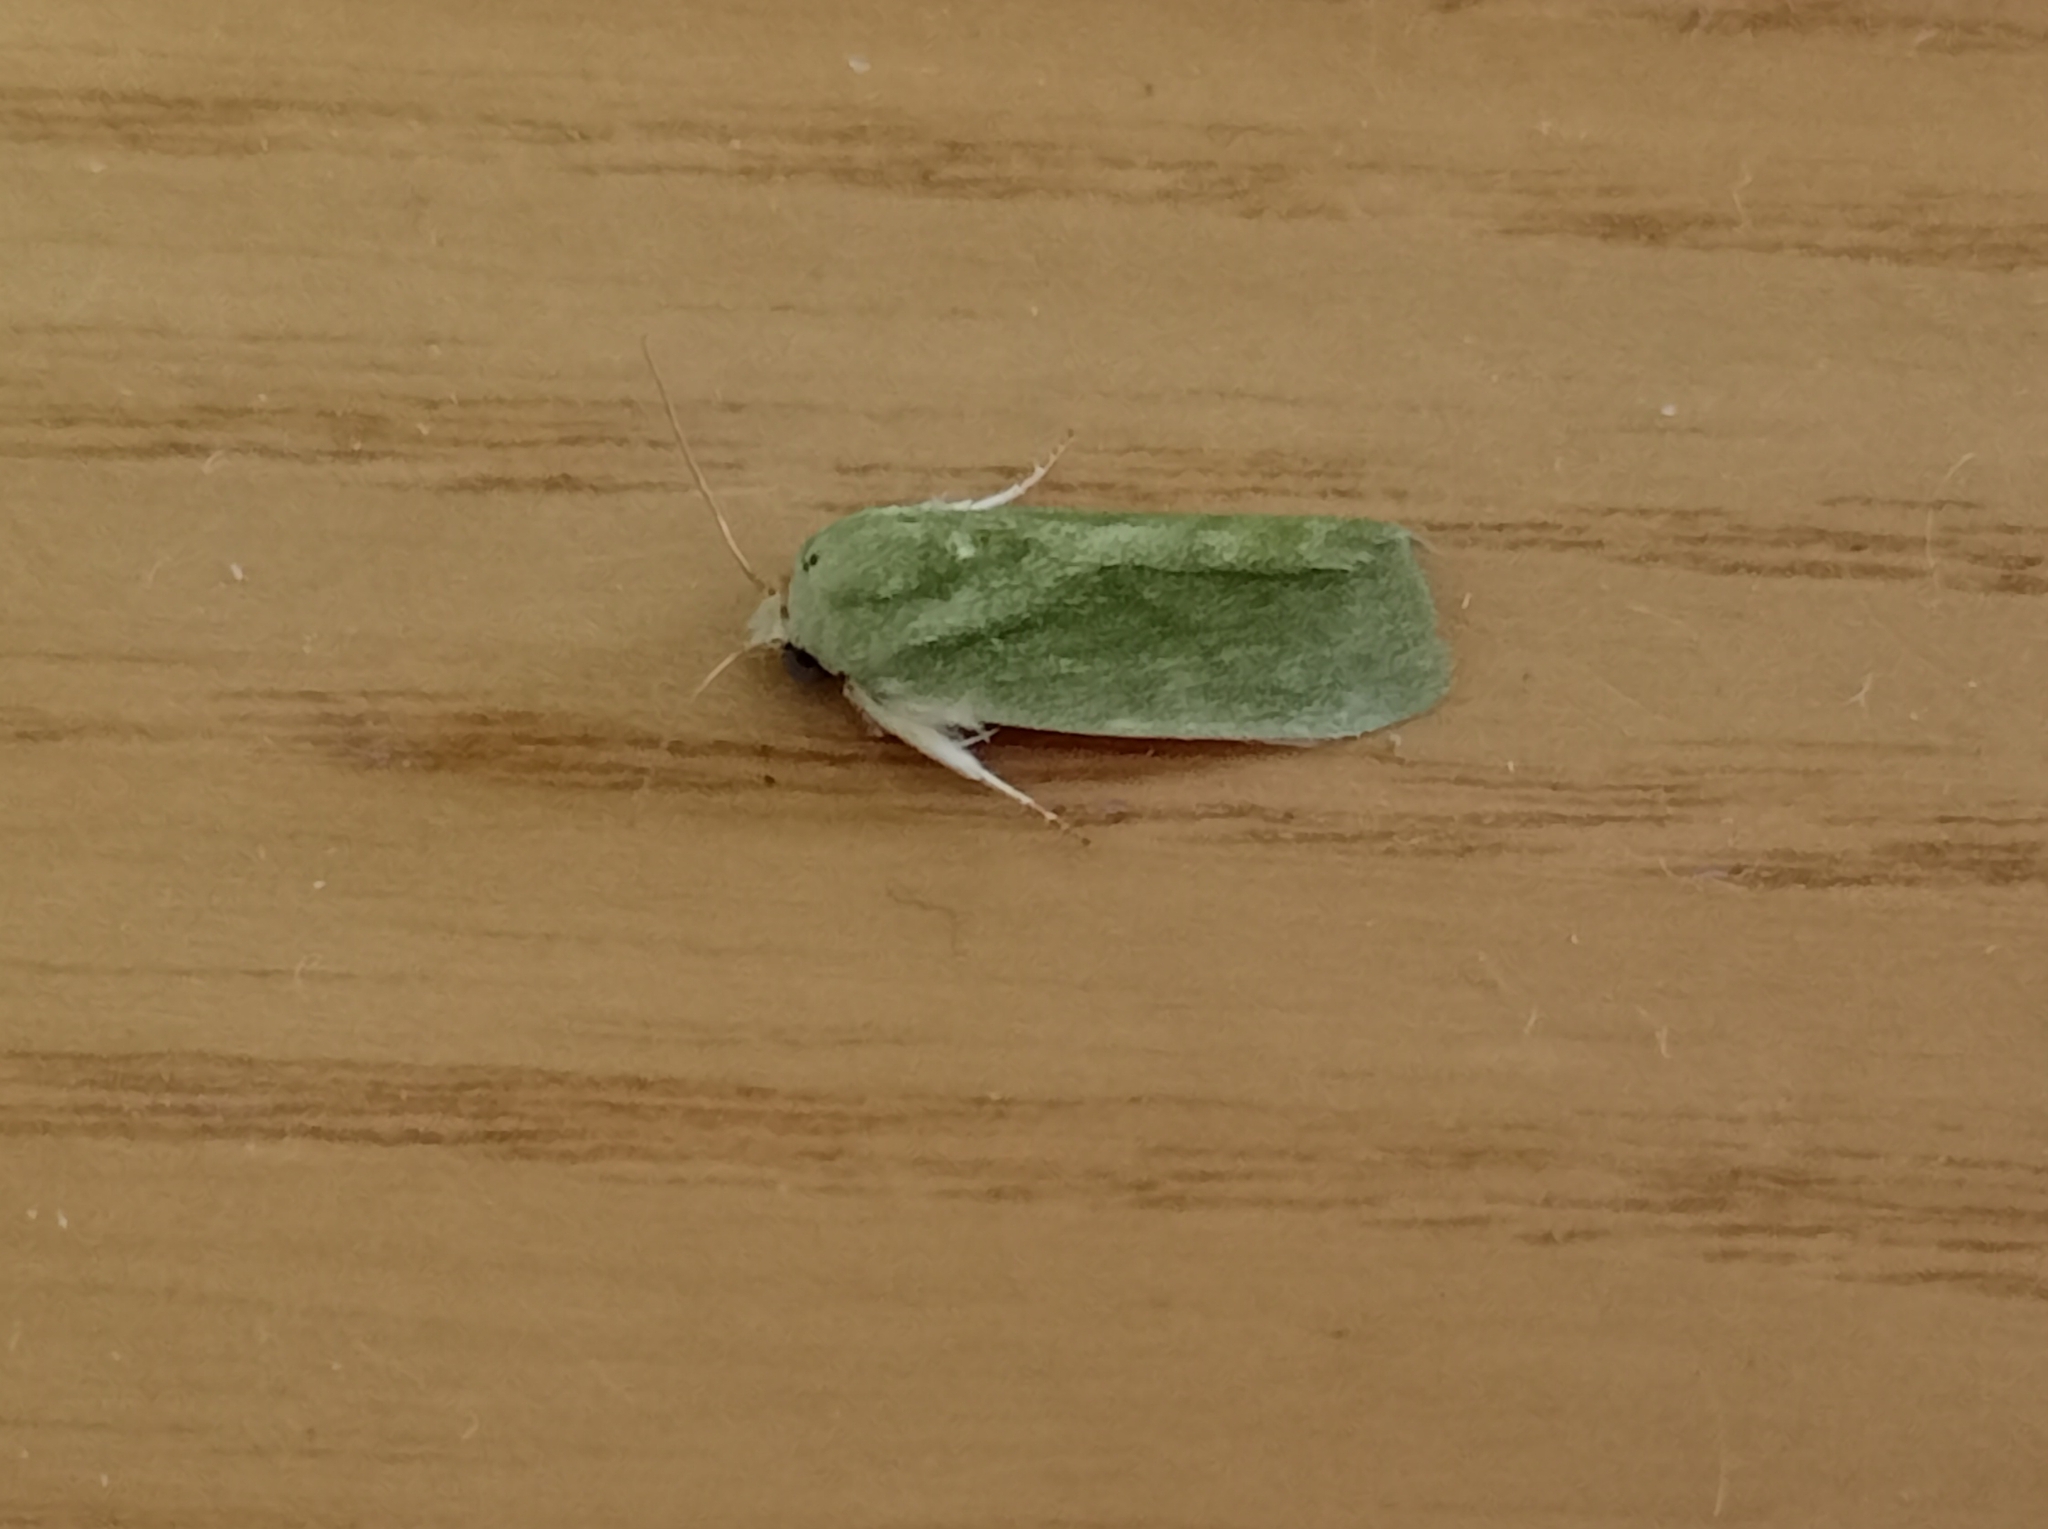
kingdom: Animalia
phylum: Arthropoda
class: Insecta
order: Lepidoptera
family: Nolidae
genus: Earias
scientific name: Earias insulana
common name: Egyptian bollworm
